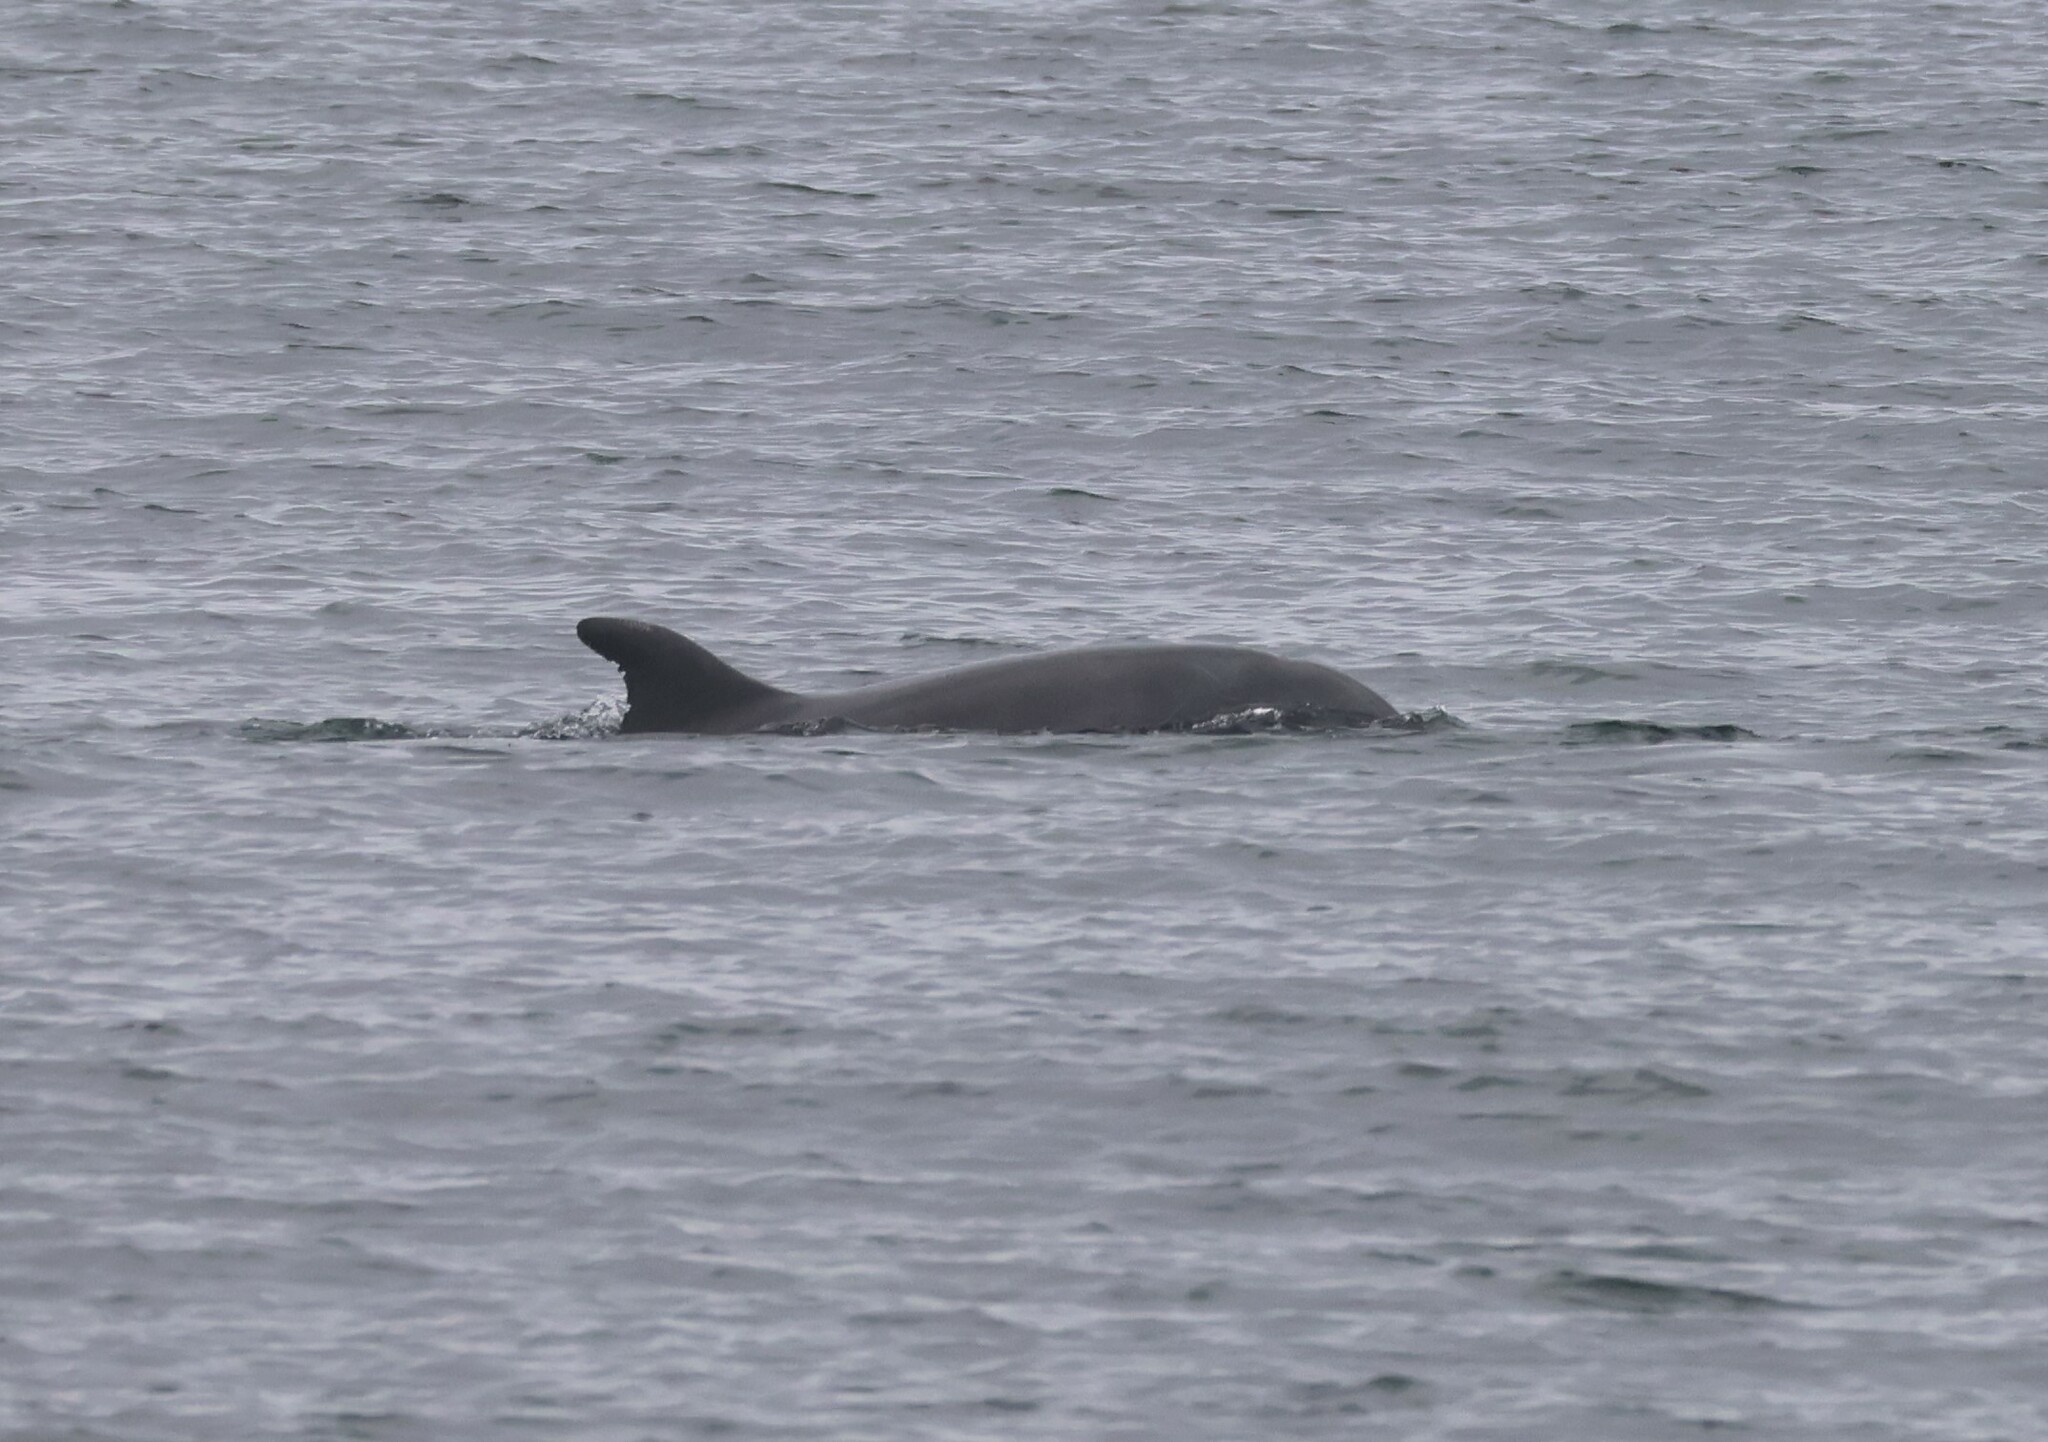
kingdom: Animalia
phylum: Chordata
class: Mammalia
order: Cetacea
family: Delphinidae
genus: Tursiops
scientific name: Tursiops truncatus
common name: Bottlenose dolphin
